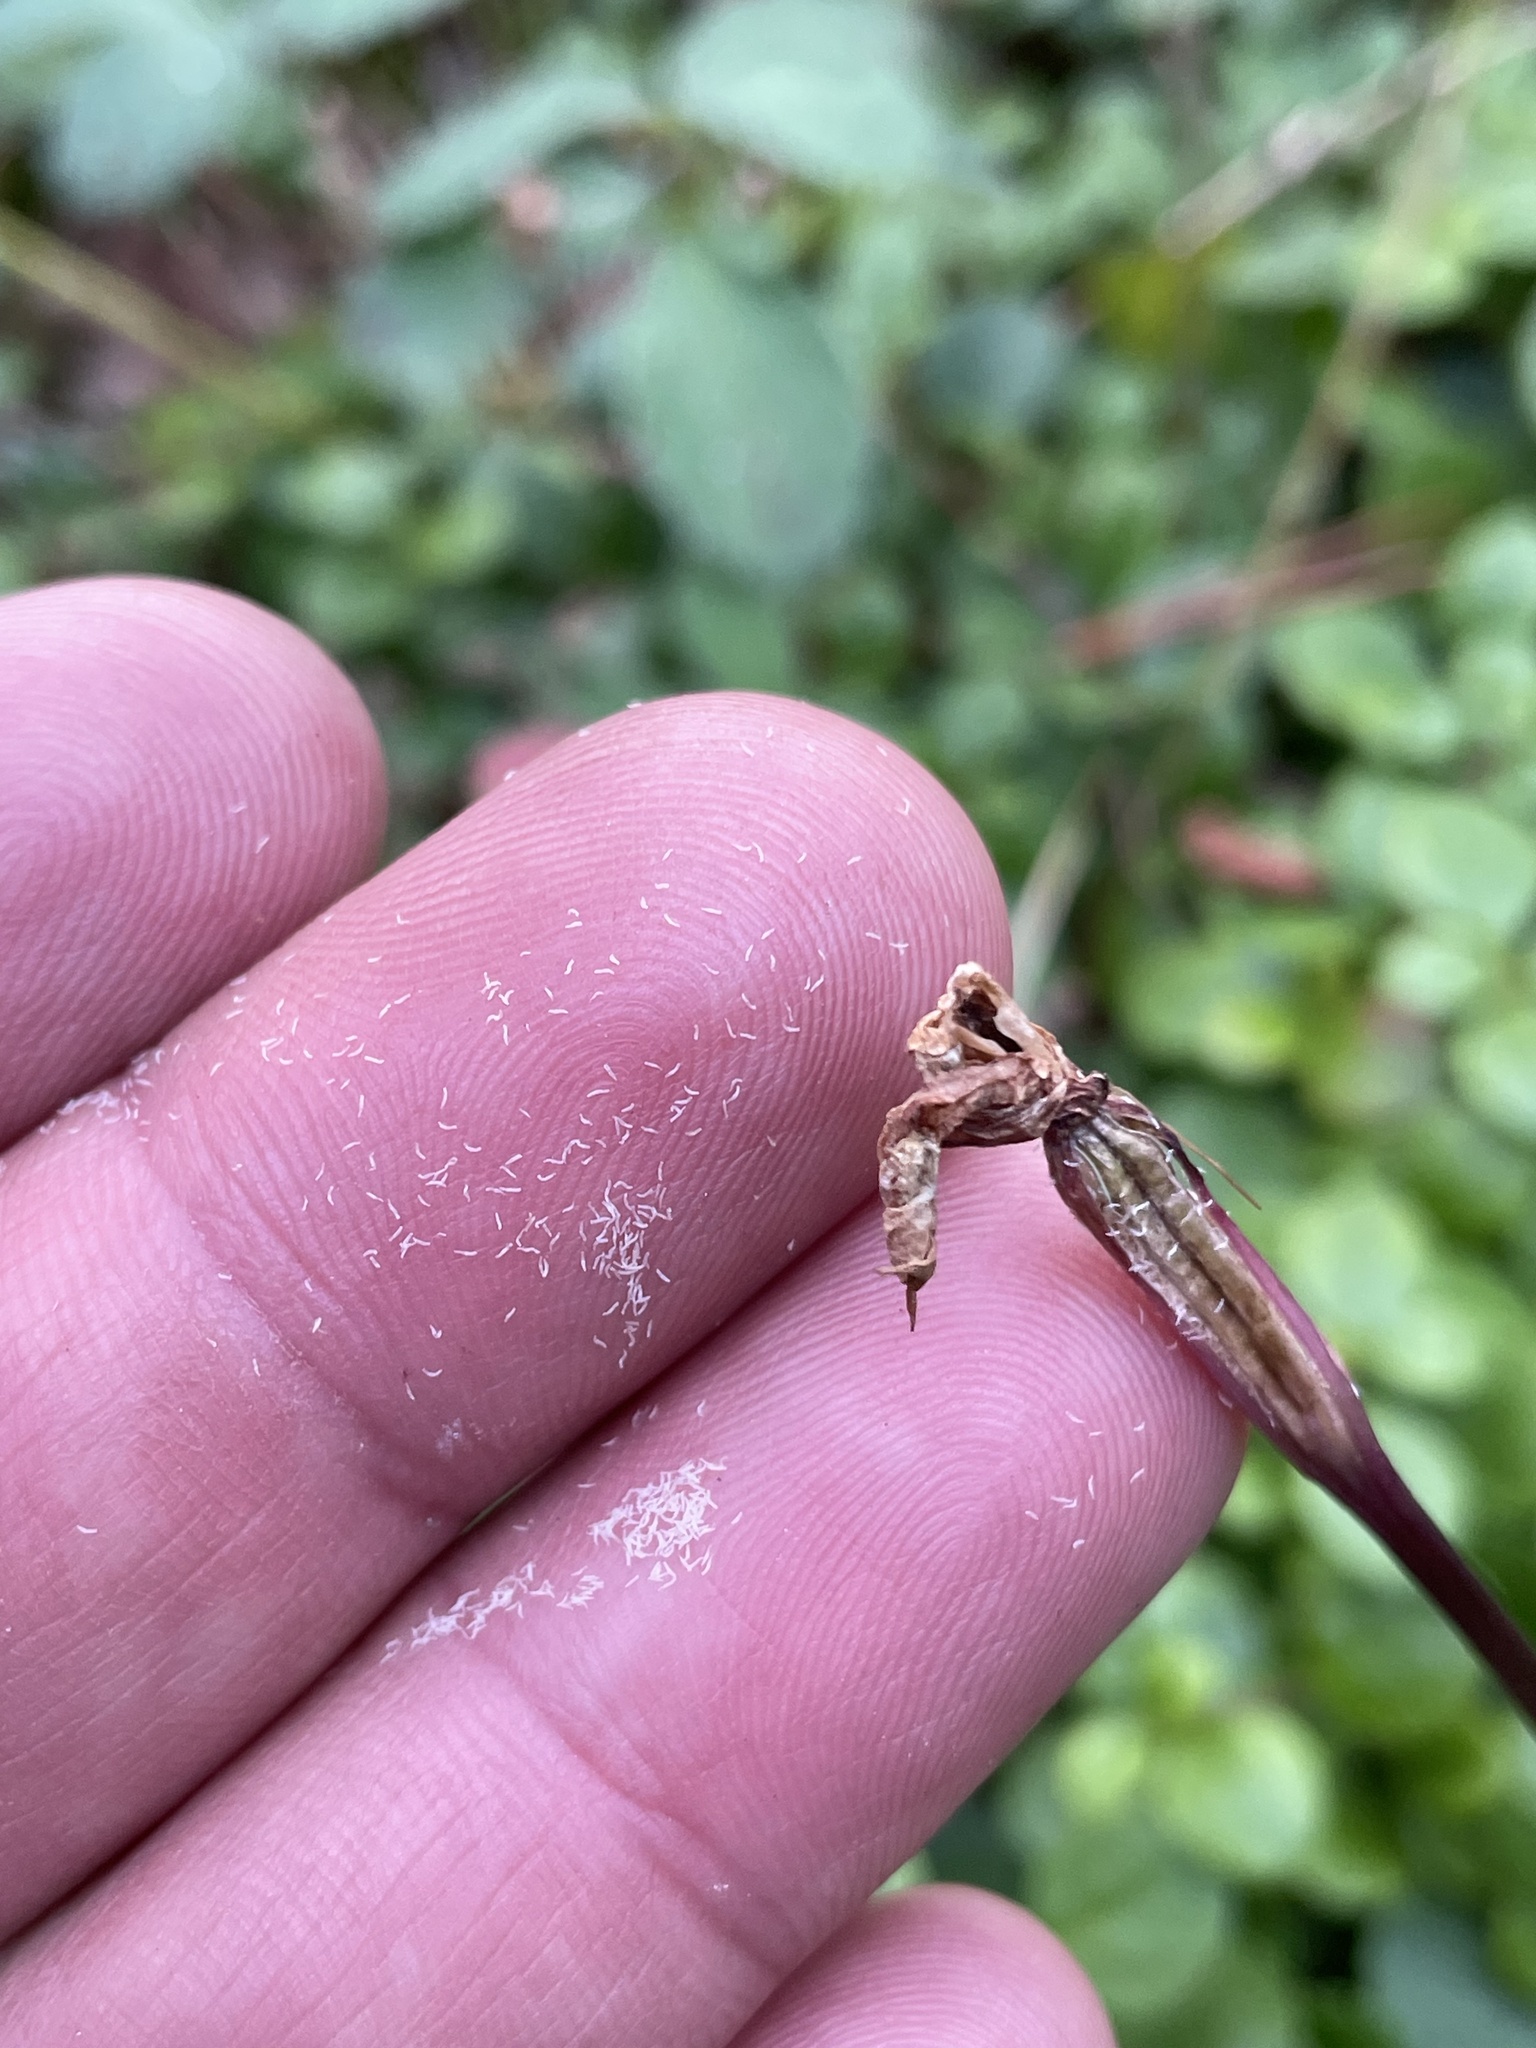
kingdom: Plantae
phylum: Tracheophyta
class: Liliopsida
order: Asparagales
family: Orchidaceae
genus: Calypso
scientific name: Calypso bulbosa
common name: Calypso
